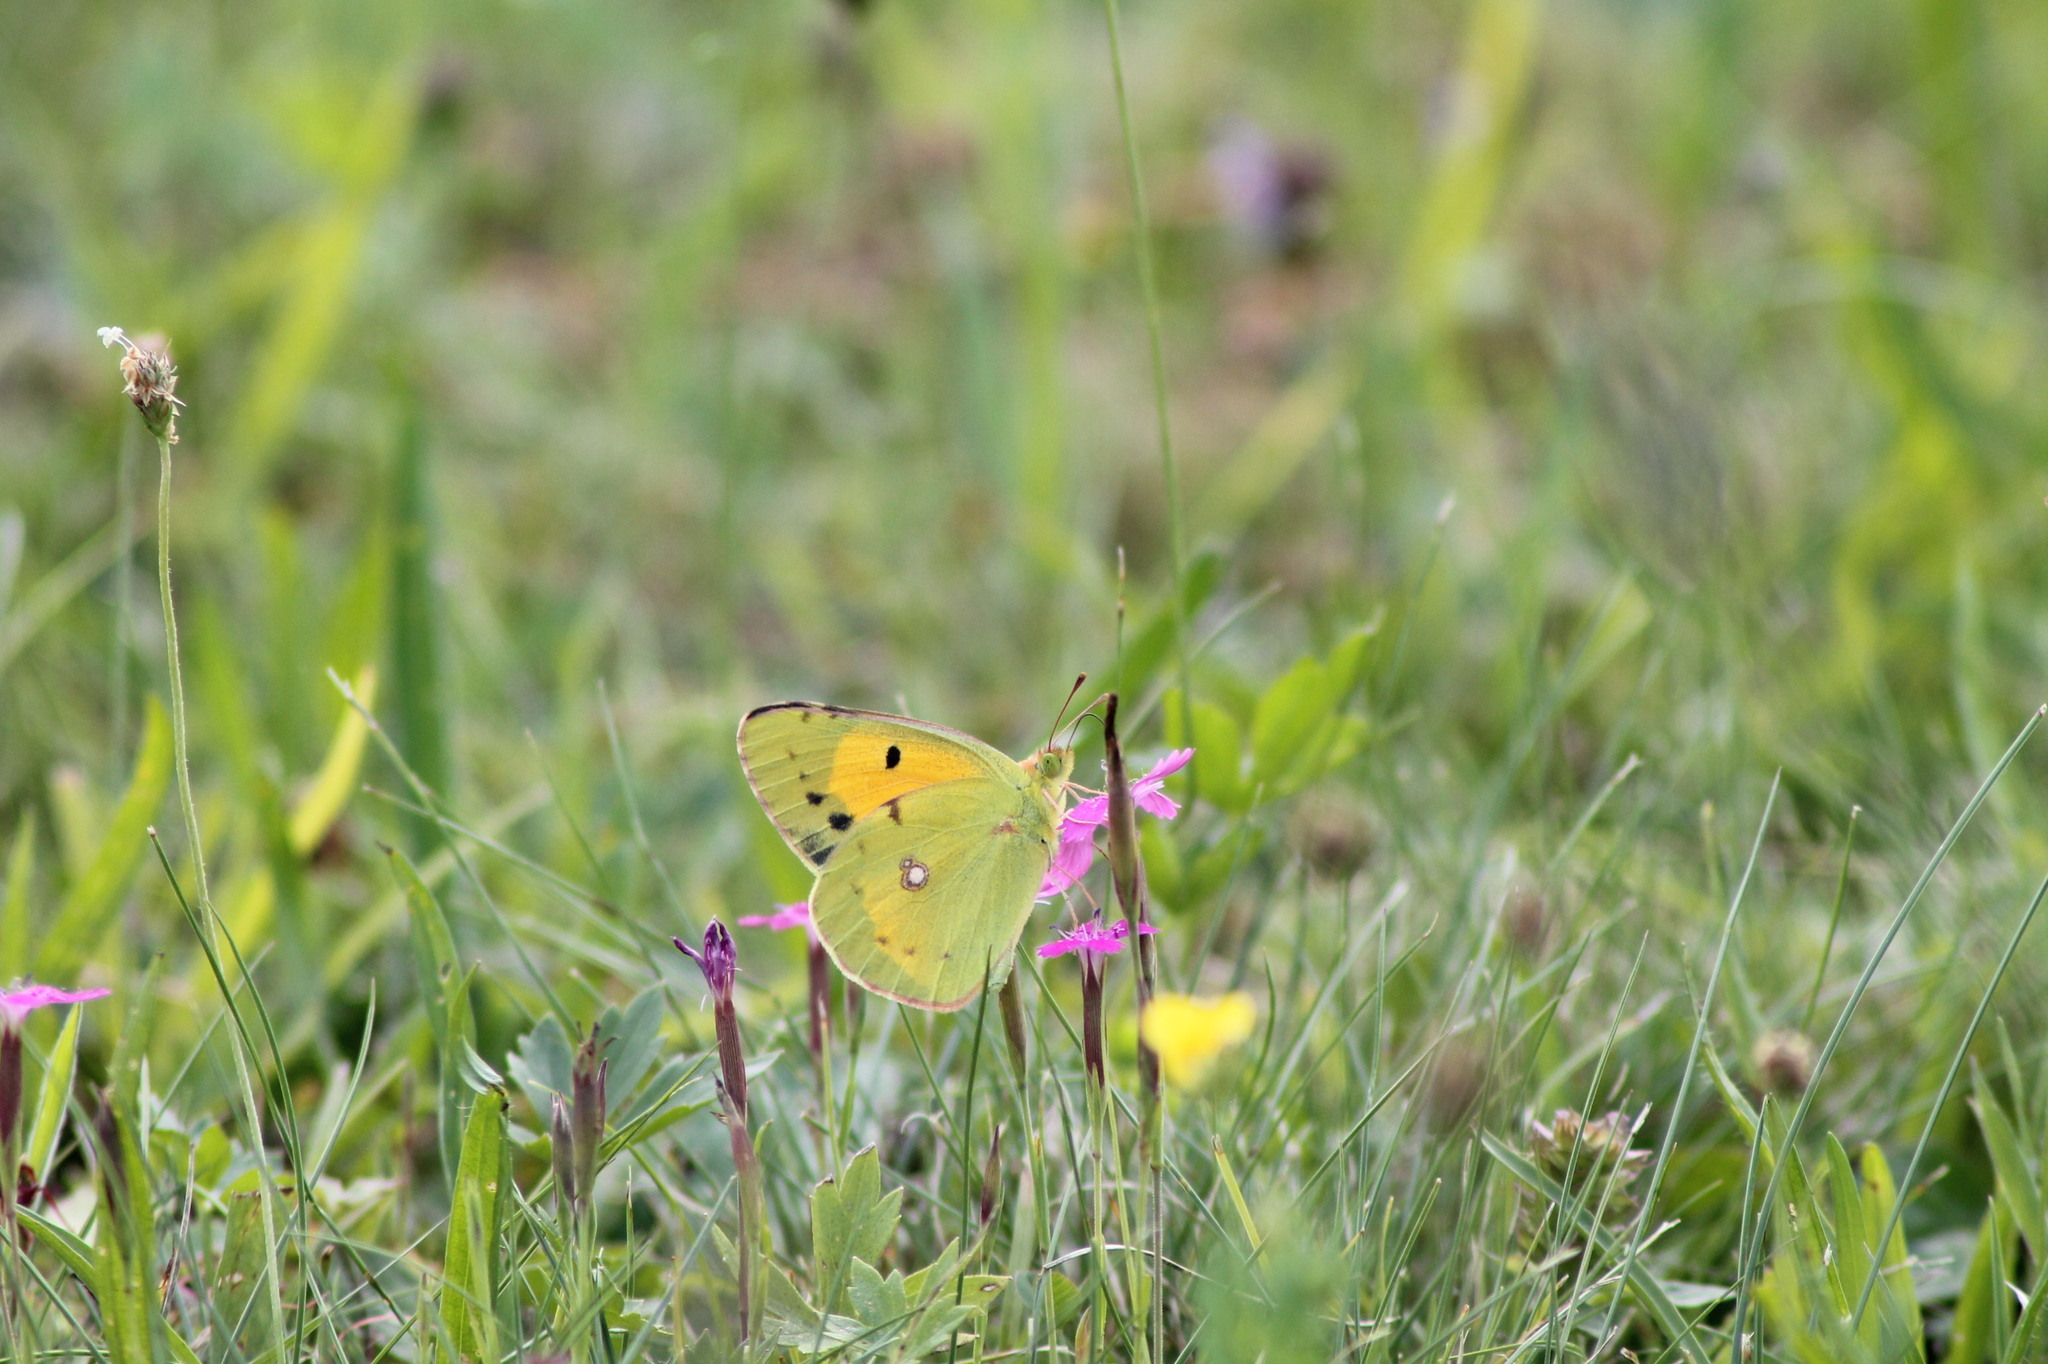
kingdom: Animalia
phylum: Arthropoda
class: Insecta
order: Lepidoptera
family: Pieridae
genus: Colias
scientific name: Colias croceus
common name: Clouded yellow
